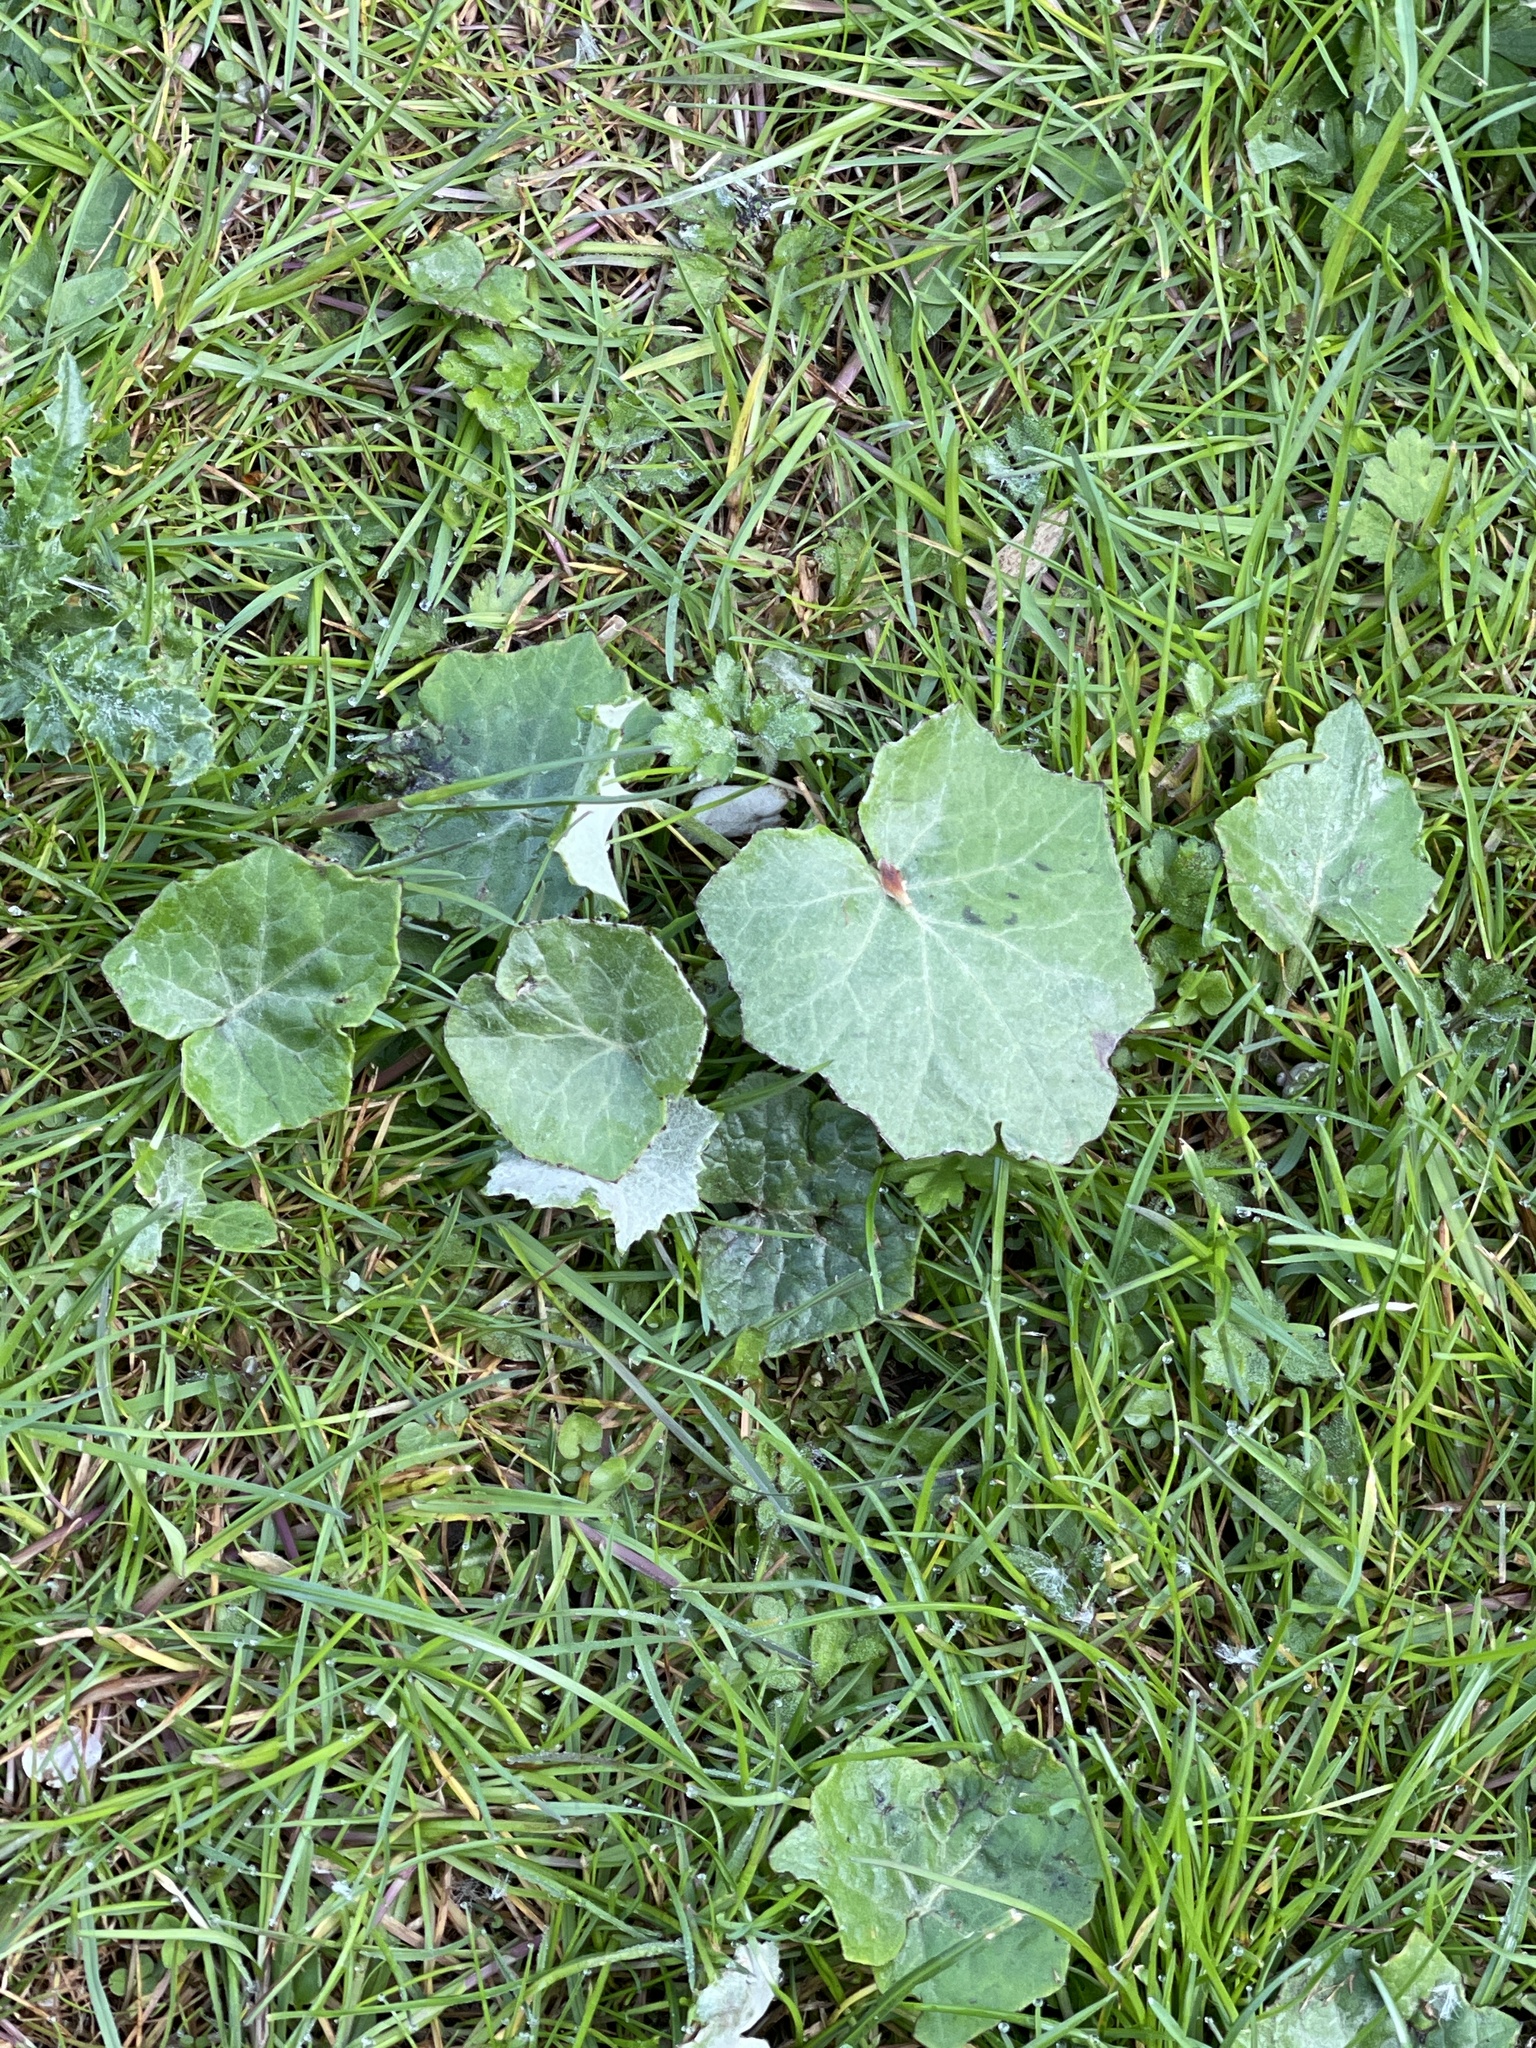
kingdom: Plantae
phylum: Tracheophyta
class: Magnoliopsida
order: Asterales
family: Asteraceae
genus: Tussilago
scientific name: Tussilago farfara
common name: Coltsfoot
